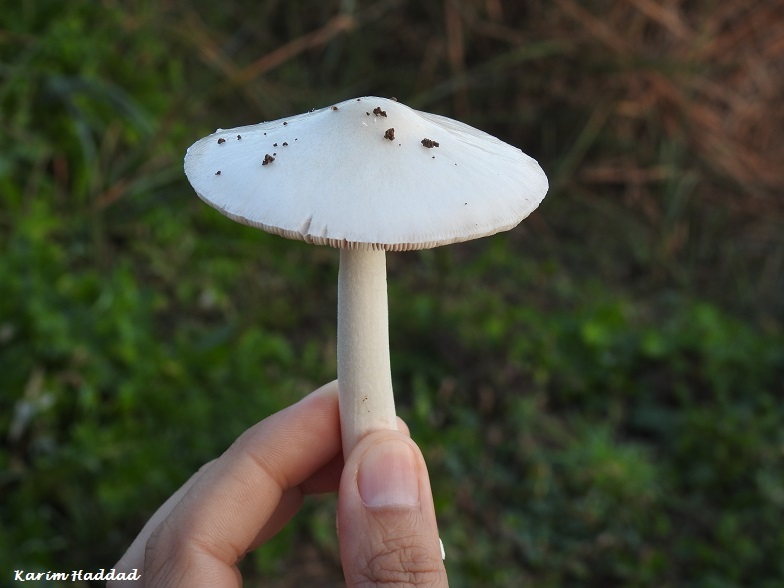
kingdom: Fungi
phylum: Basidiomycota
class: Agaricomycetes
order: Agaricales
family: Pluteaceae
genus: Volvopluteus
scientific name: Volvopluteus gloiocephalus
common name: Stubble rosegill
